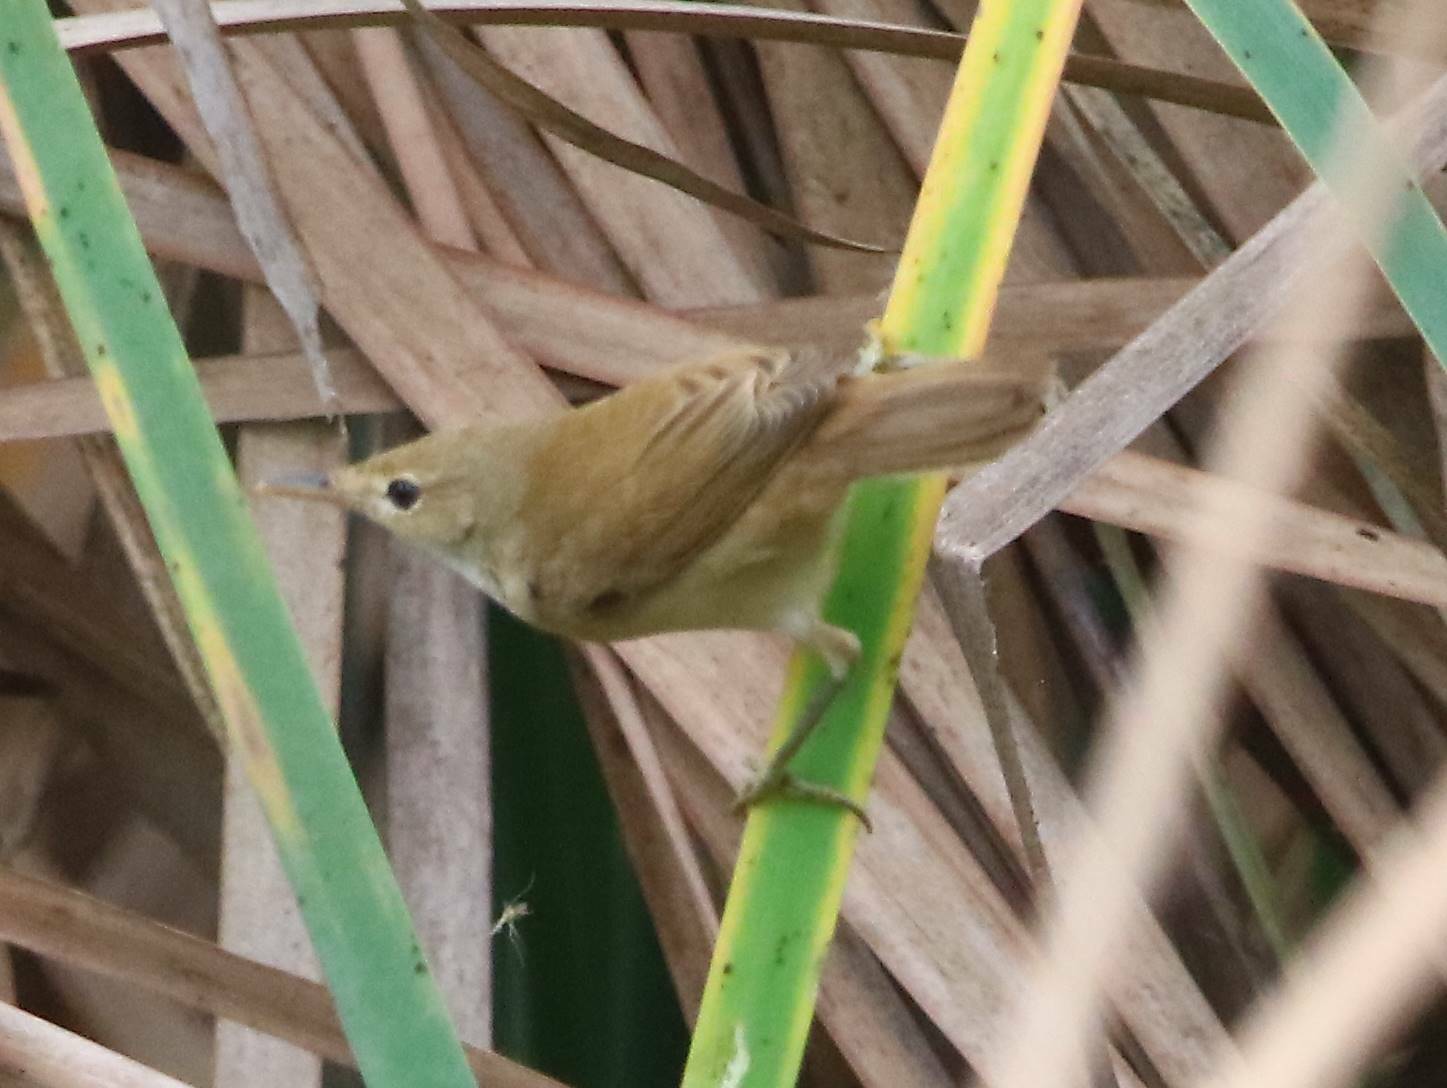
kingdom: Animalia
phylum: Chordata
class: Aves
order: Passeriformes
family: Acrocephalidae
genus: Acrocephalus
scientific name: Acrocephalus scirpaceus
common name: Eurasian reed warbler
